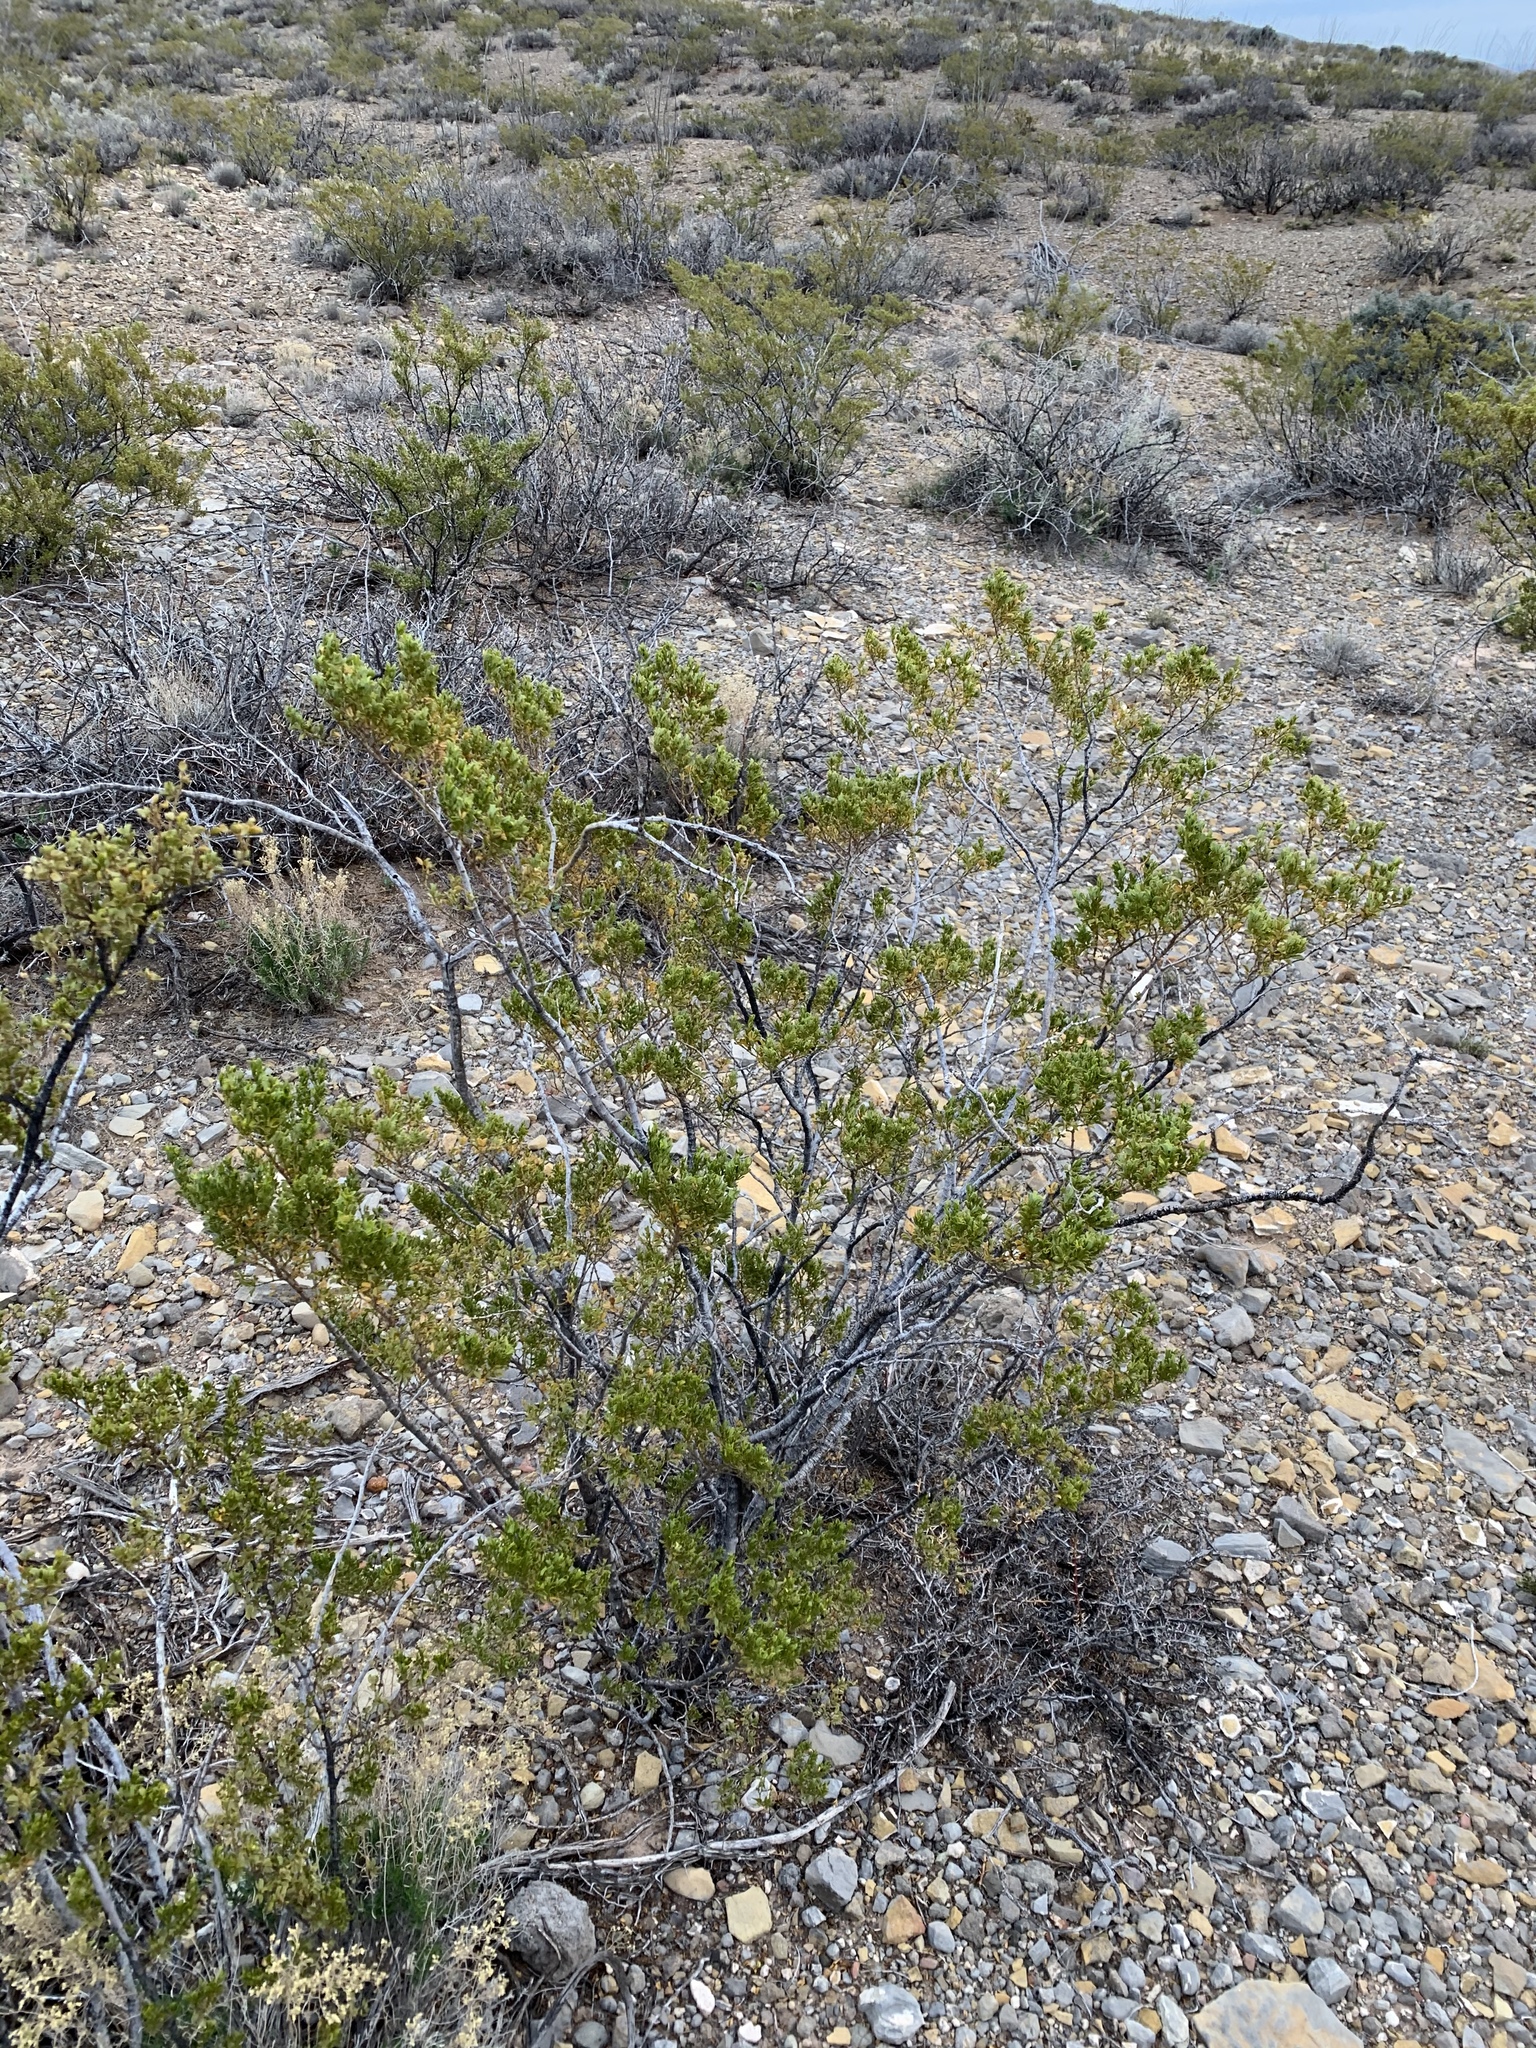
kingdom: Plantae
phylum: Tracheophyta
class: Magnoliopsida
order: Zygophyllales
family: Zygophyllaceae
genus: Larrea
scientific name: Larrea tridentata
